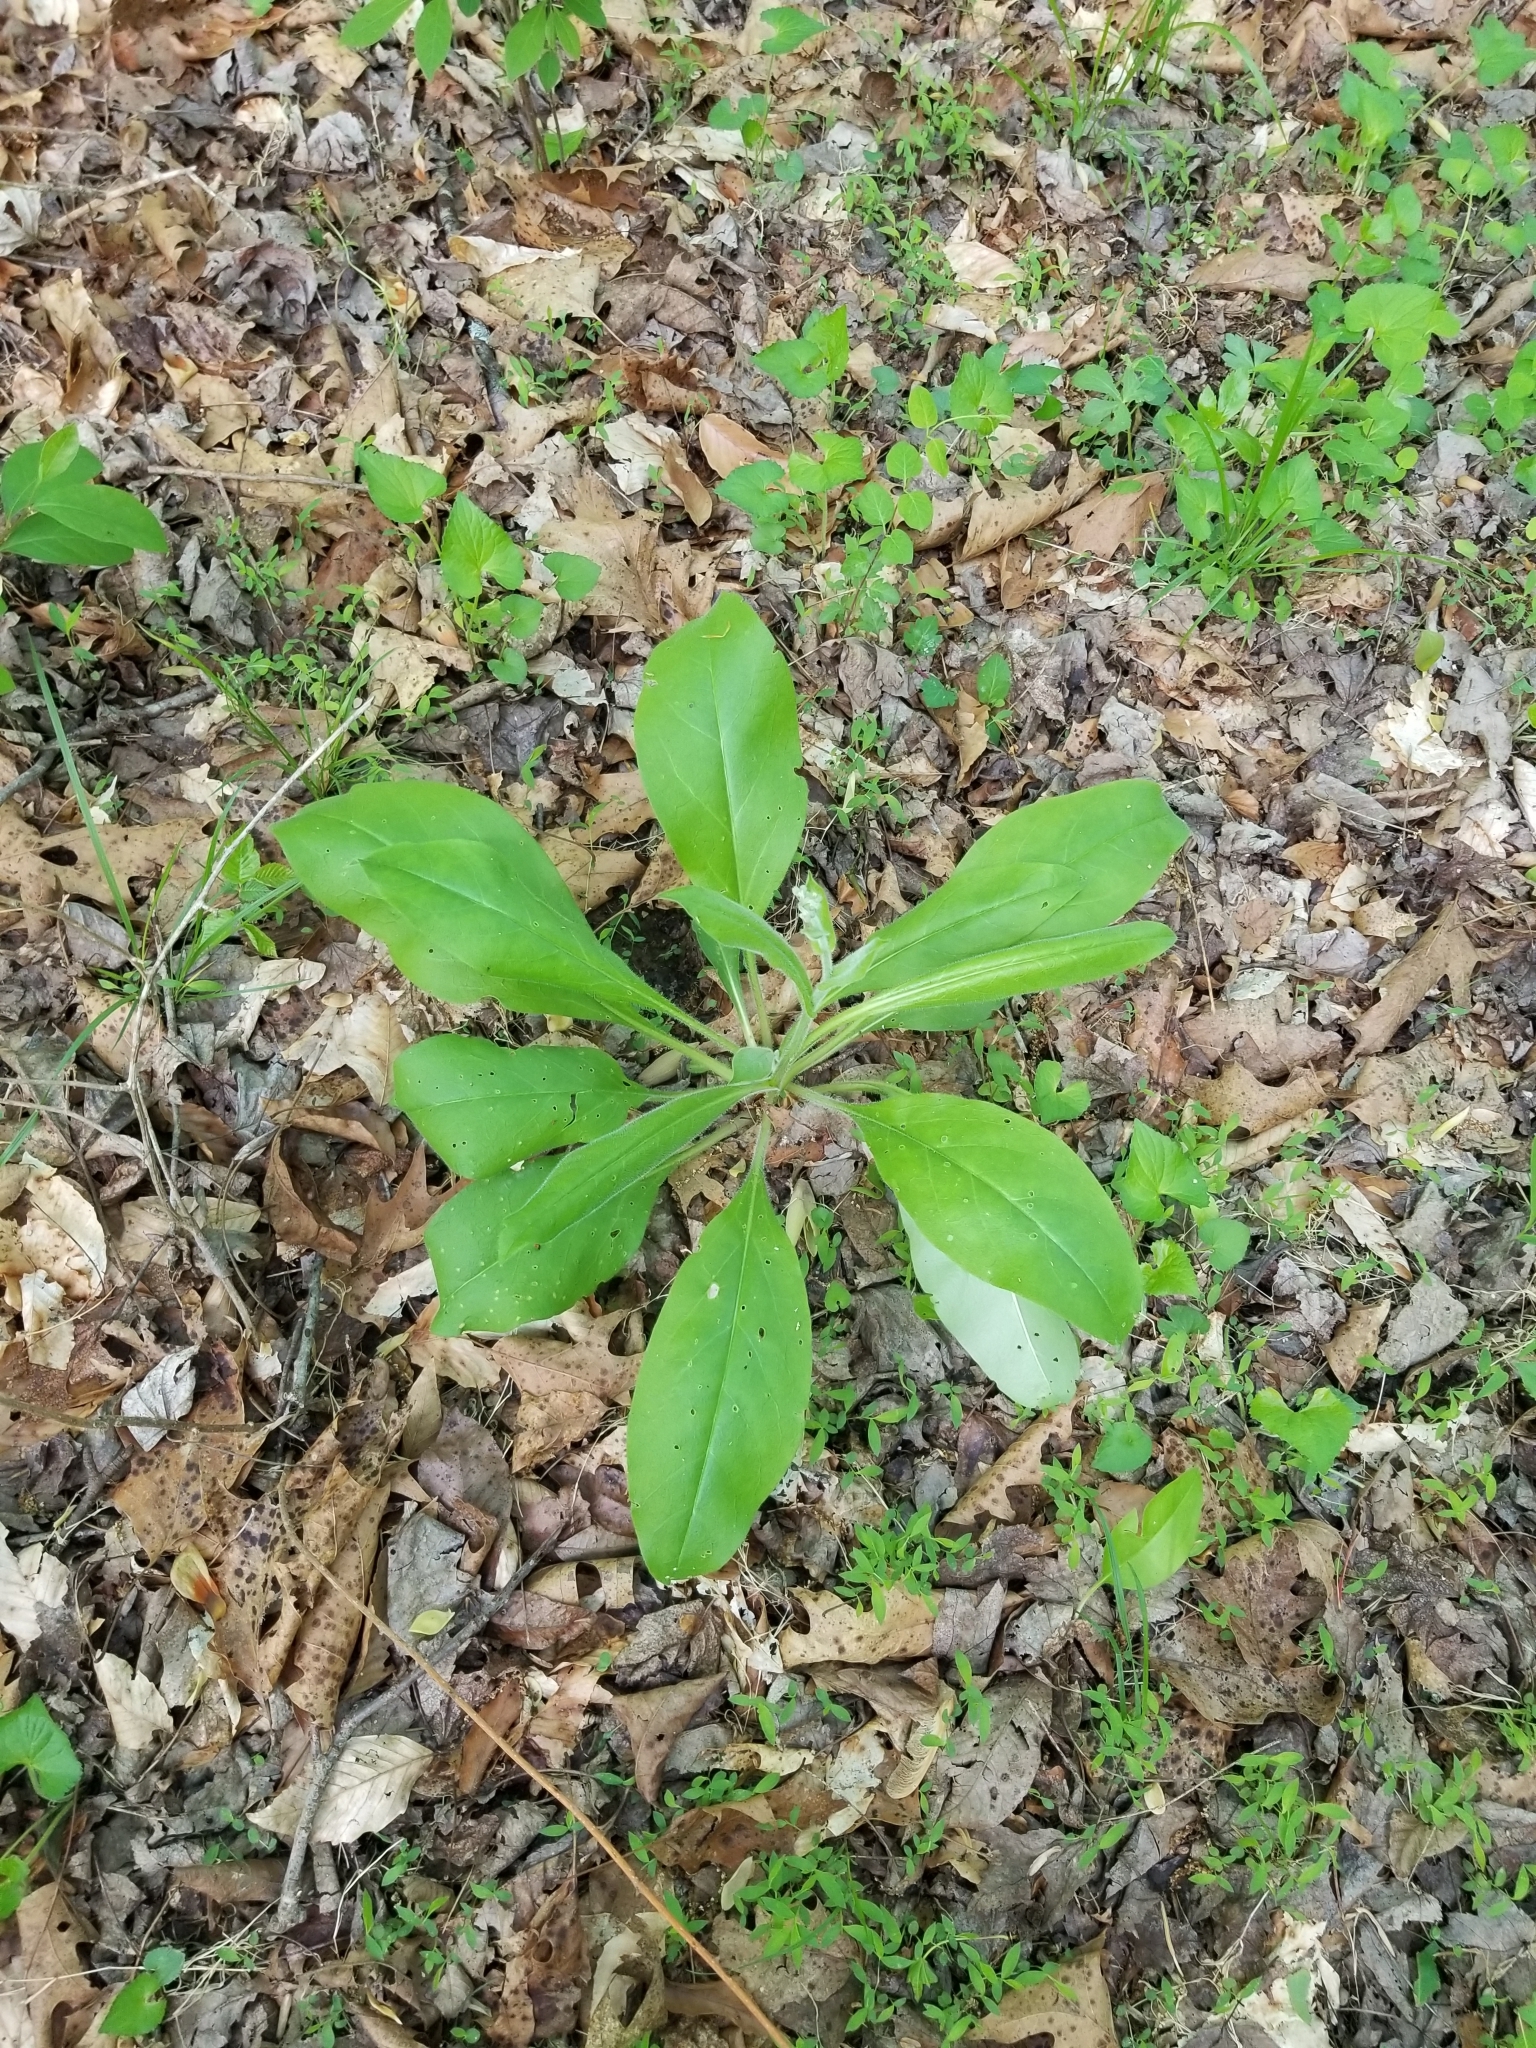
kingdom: Plantae
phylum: Tracheophyta
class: Magnoliopsida
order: Boraginales
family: Boraginaceae
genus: Andersonglossum
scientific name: Andersonglossum virginianum
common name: Wild comfrey
